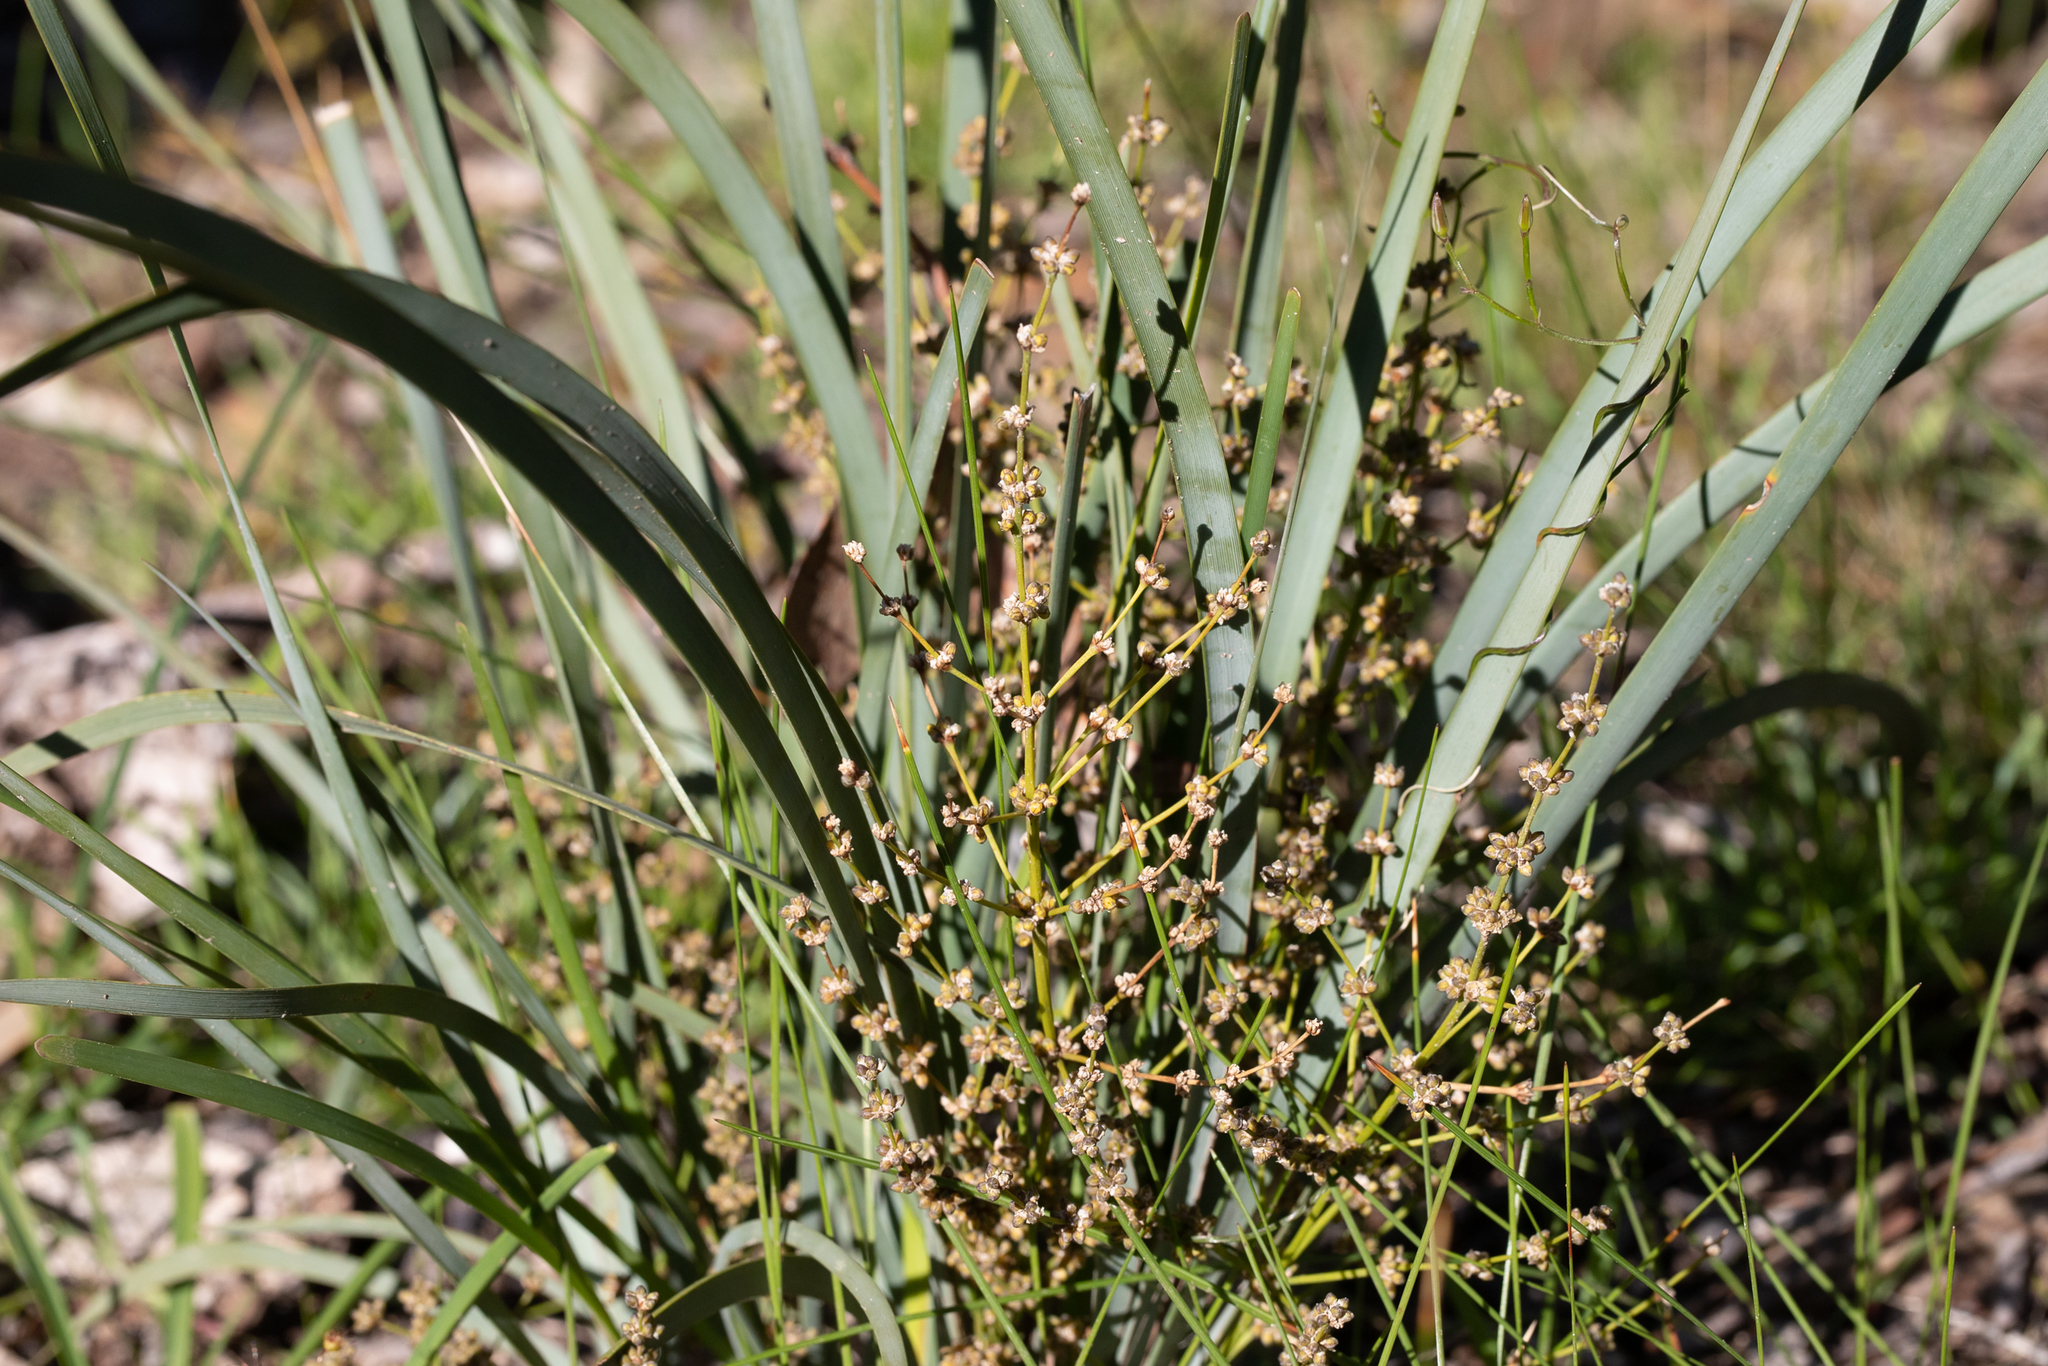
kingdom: Plantae
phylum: Tracheophyta
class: Liliopsida
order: Asparagales
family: Asparagaceae
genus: Lomandra
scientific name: Lomandra multiflora
